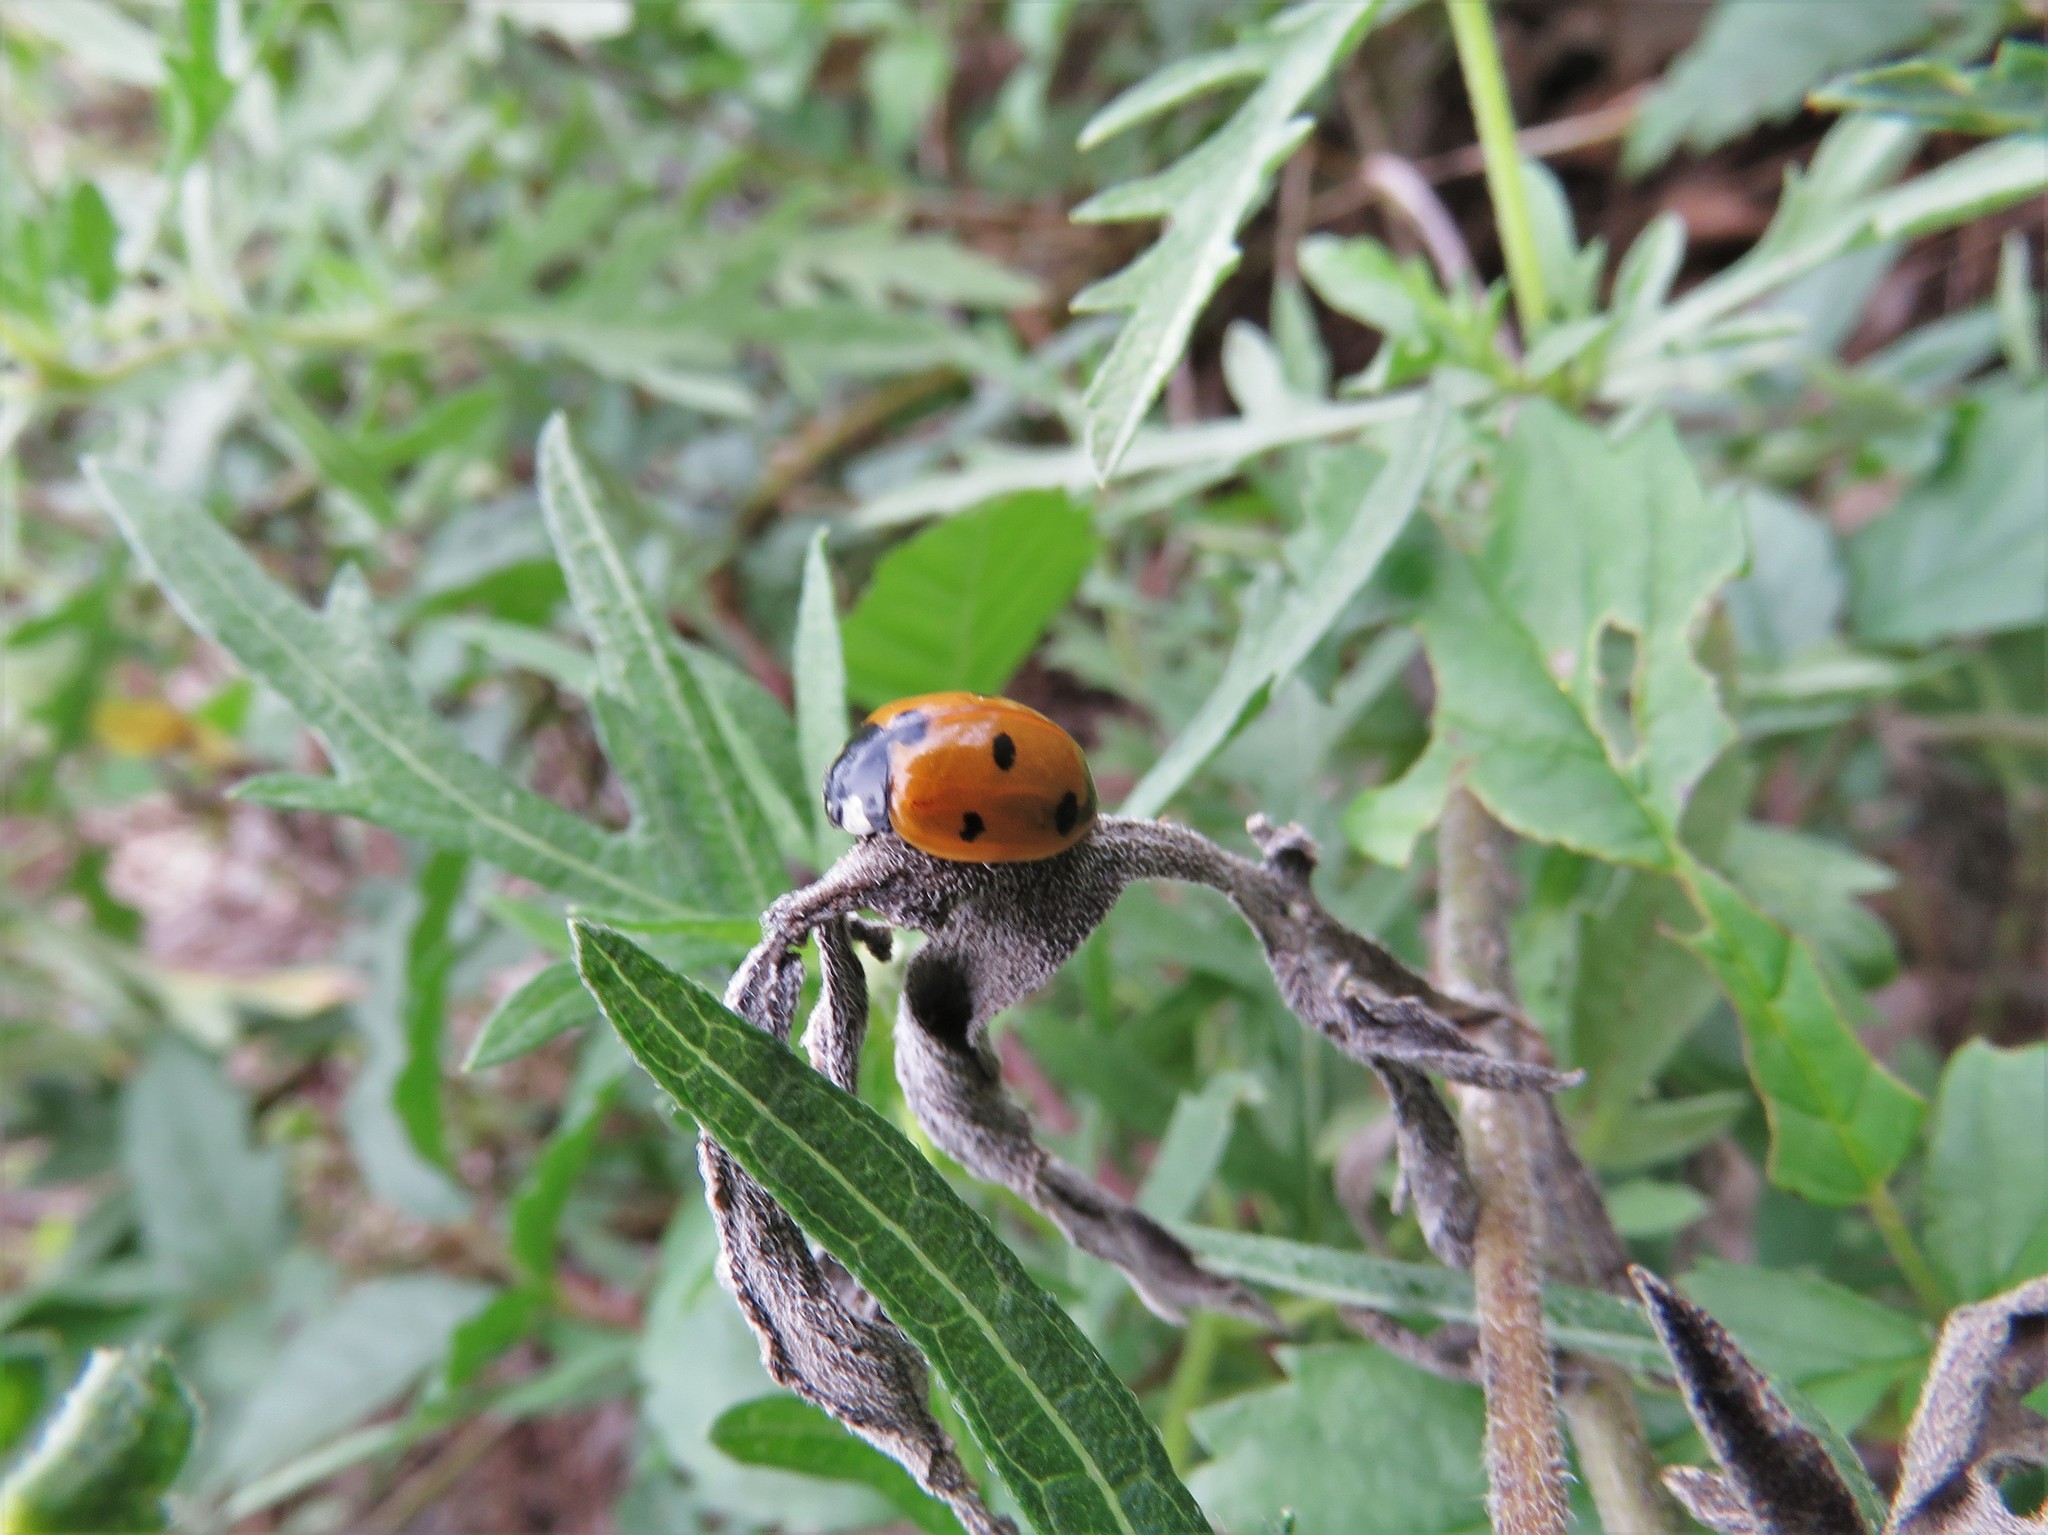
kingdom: Animalia
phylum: Arthropoda
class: Insecta
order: Coleoptera
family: Coccinellidae
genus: Coccinella
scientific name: Coccinella septempunctata
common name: Sevenspotted lady beetle
